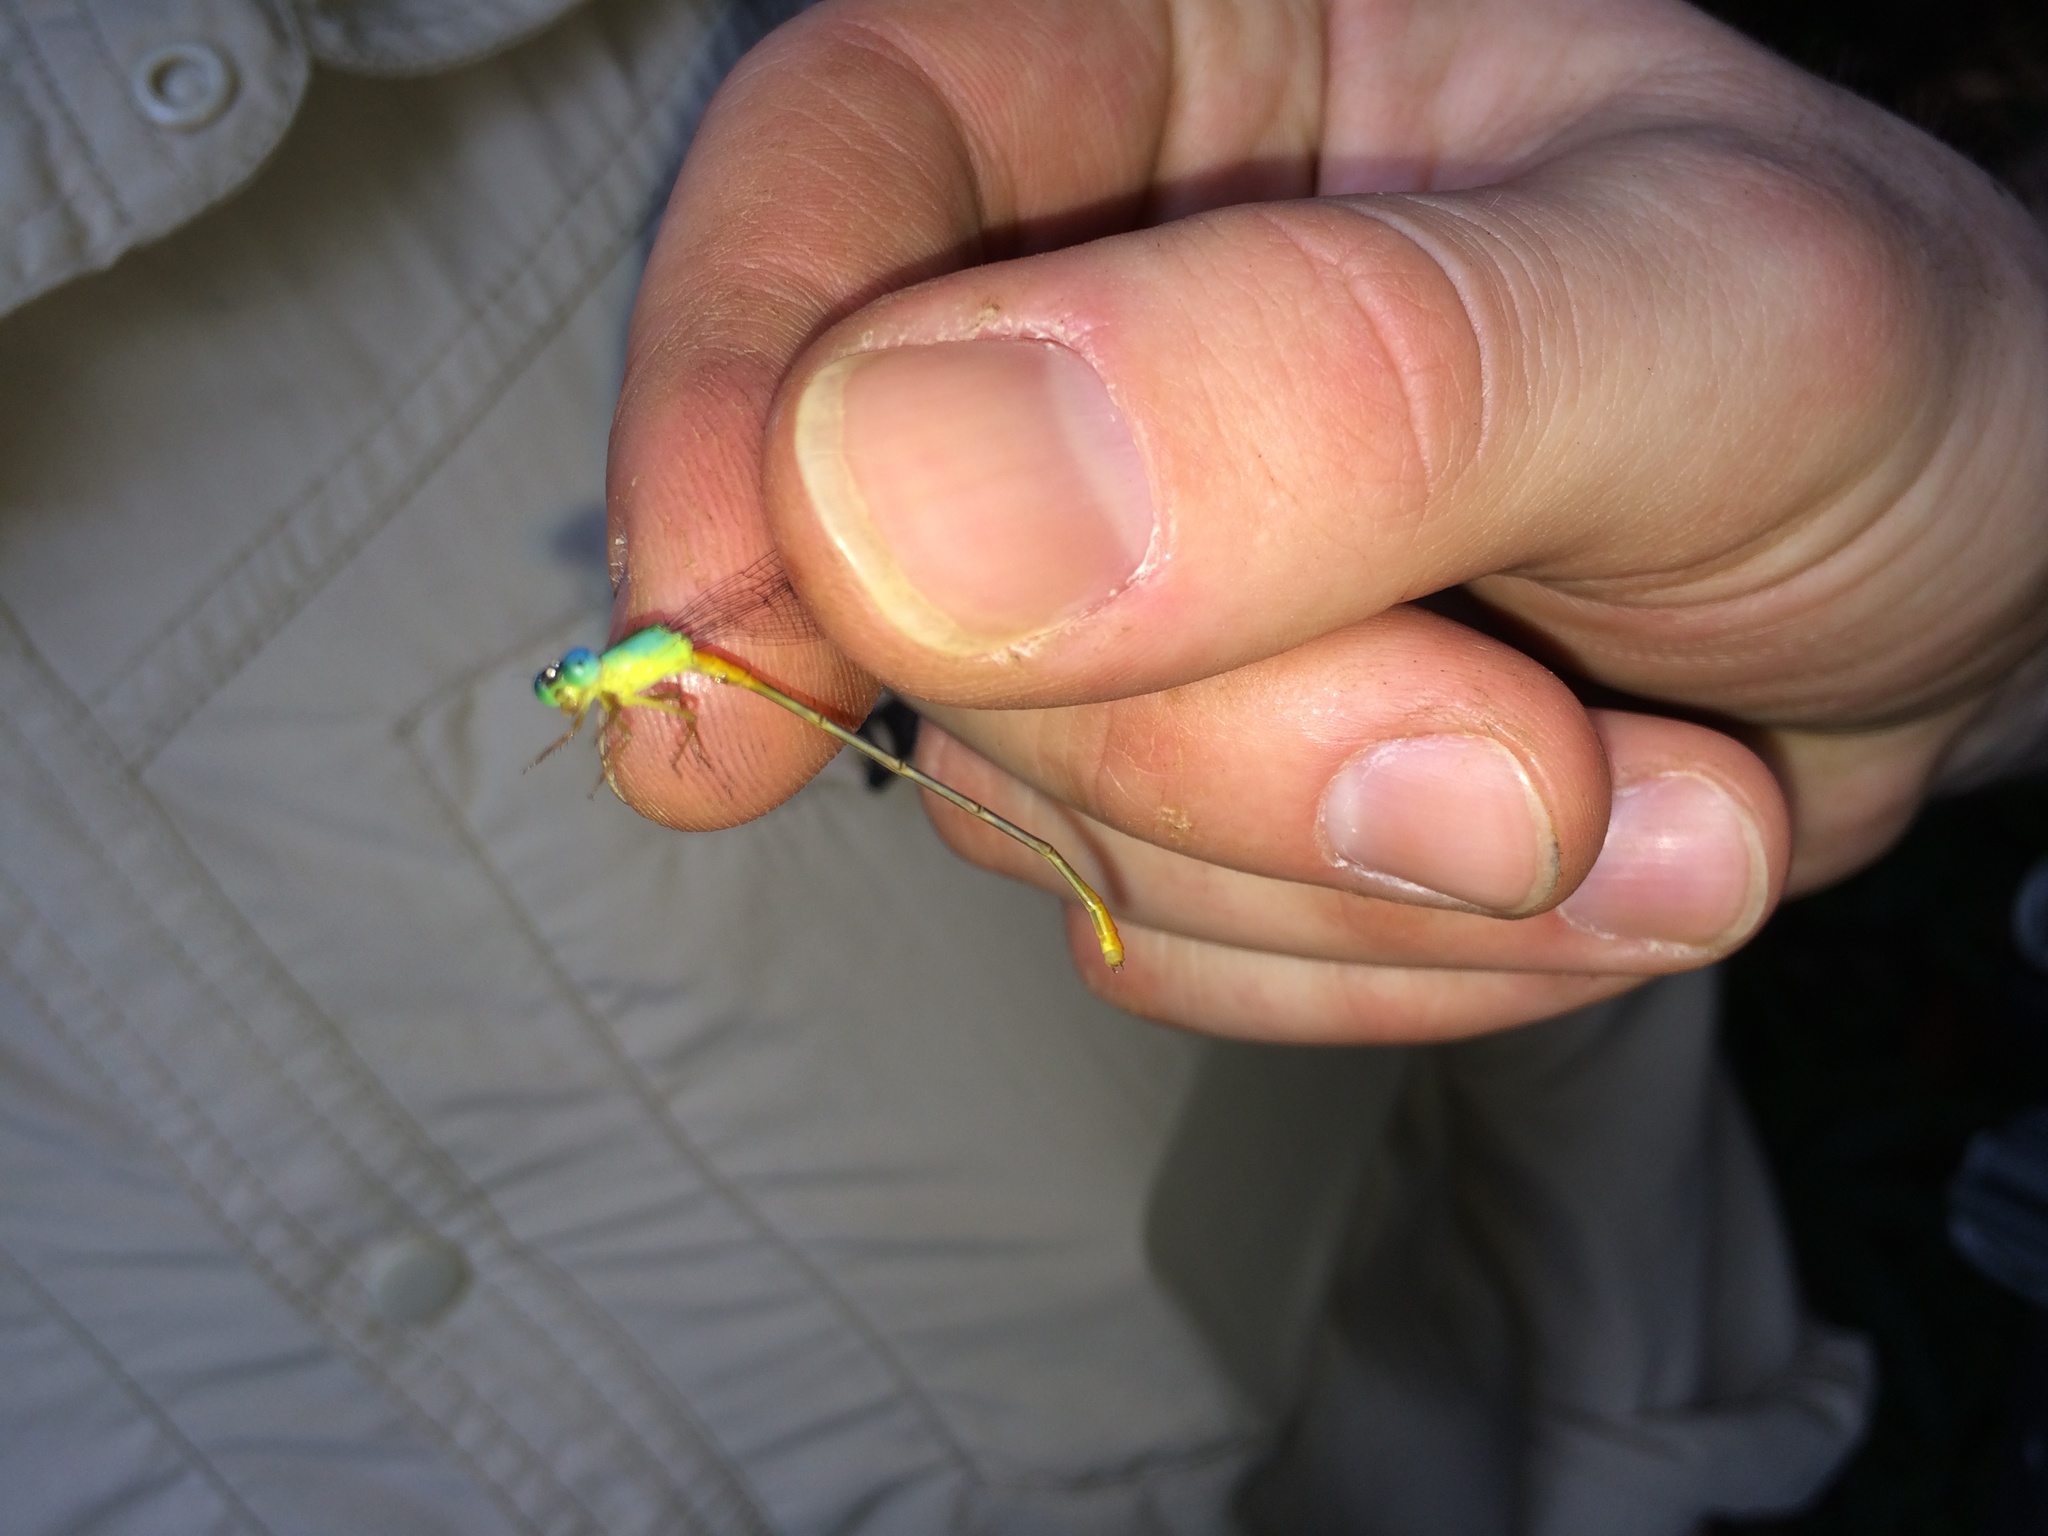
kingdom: Animalia
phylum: Arthropoda
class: Insecta
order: Odonata
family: Coenagrionidae
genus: Ceriagrion
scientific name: Ceriagrion cerinorubellum
